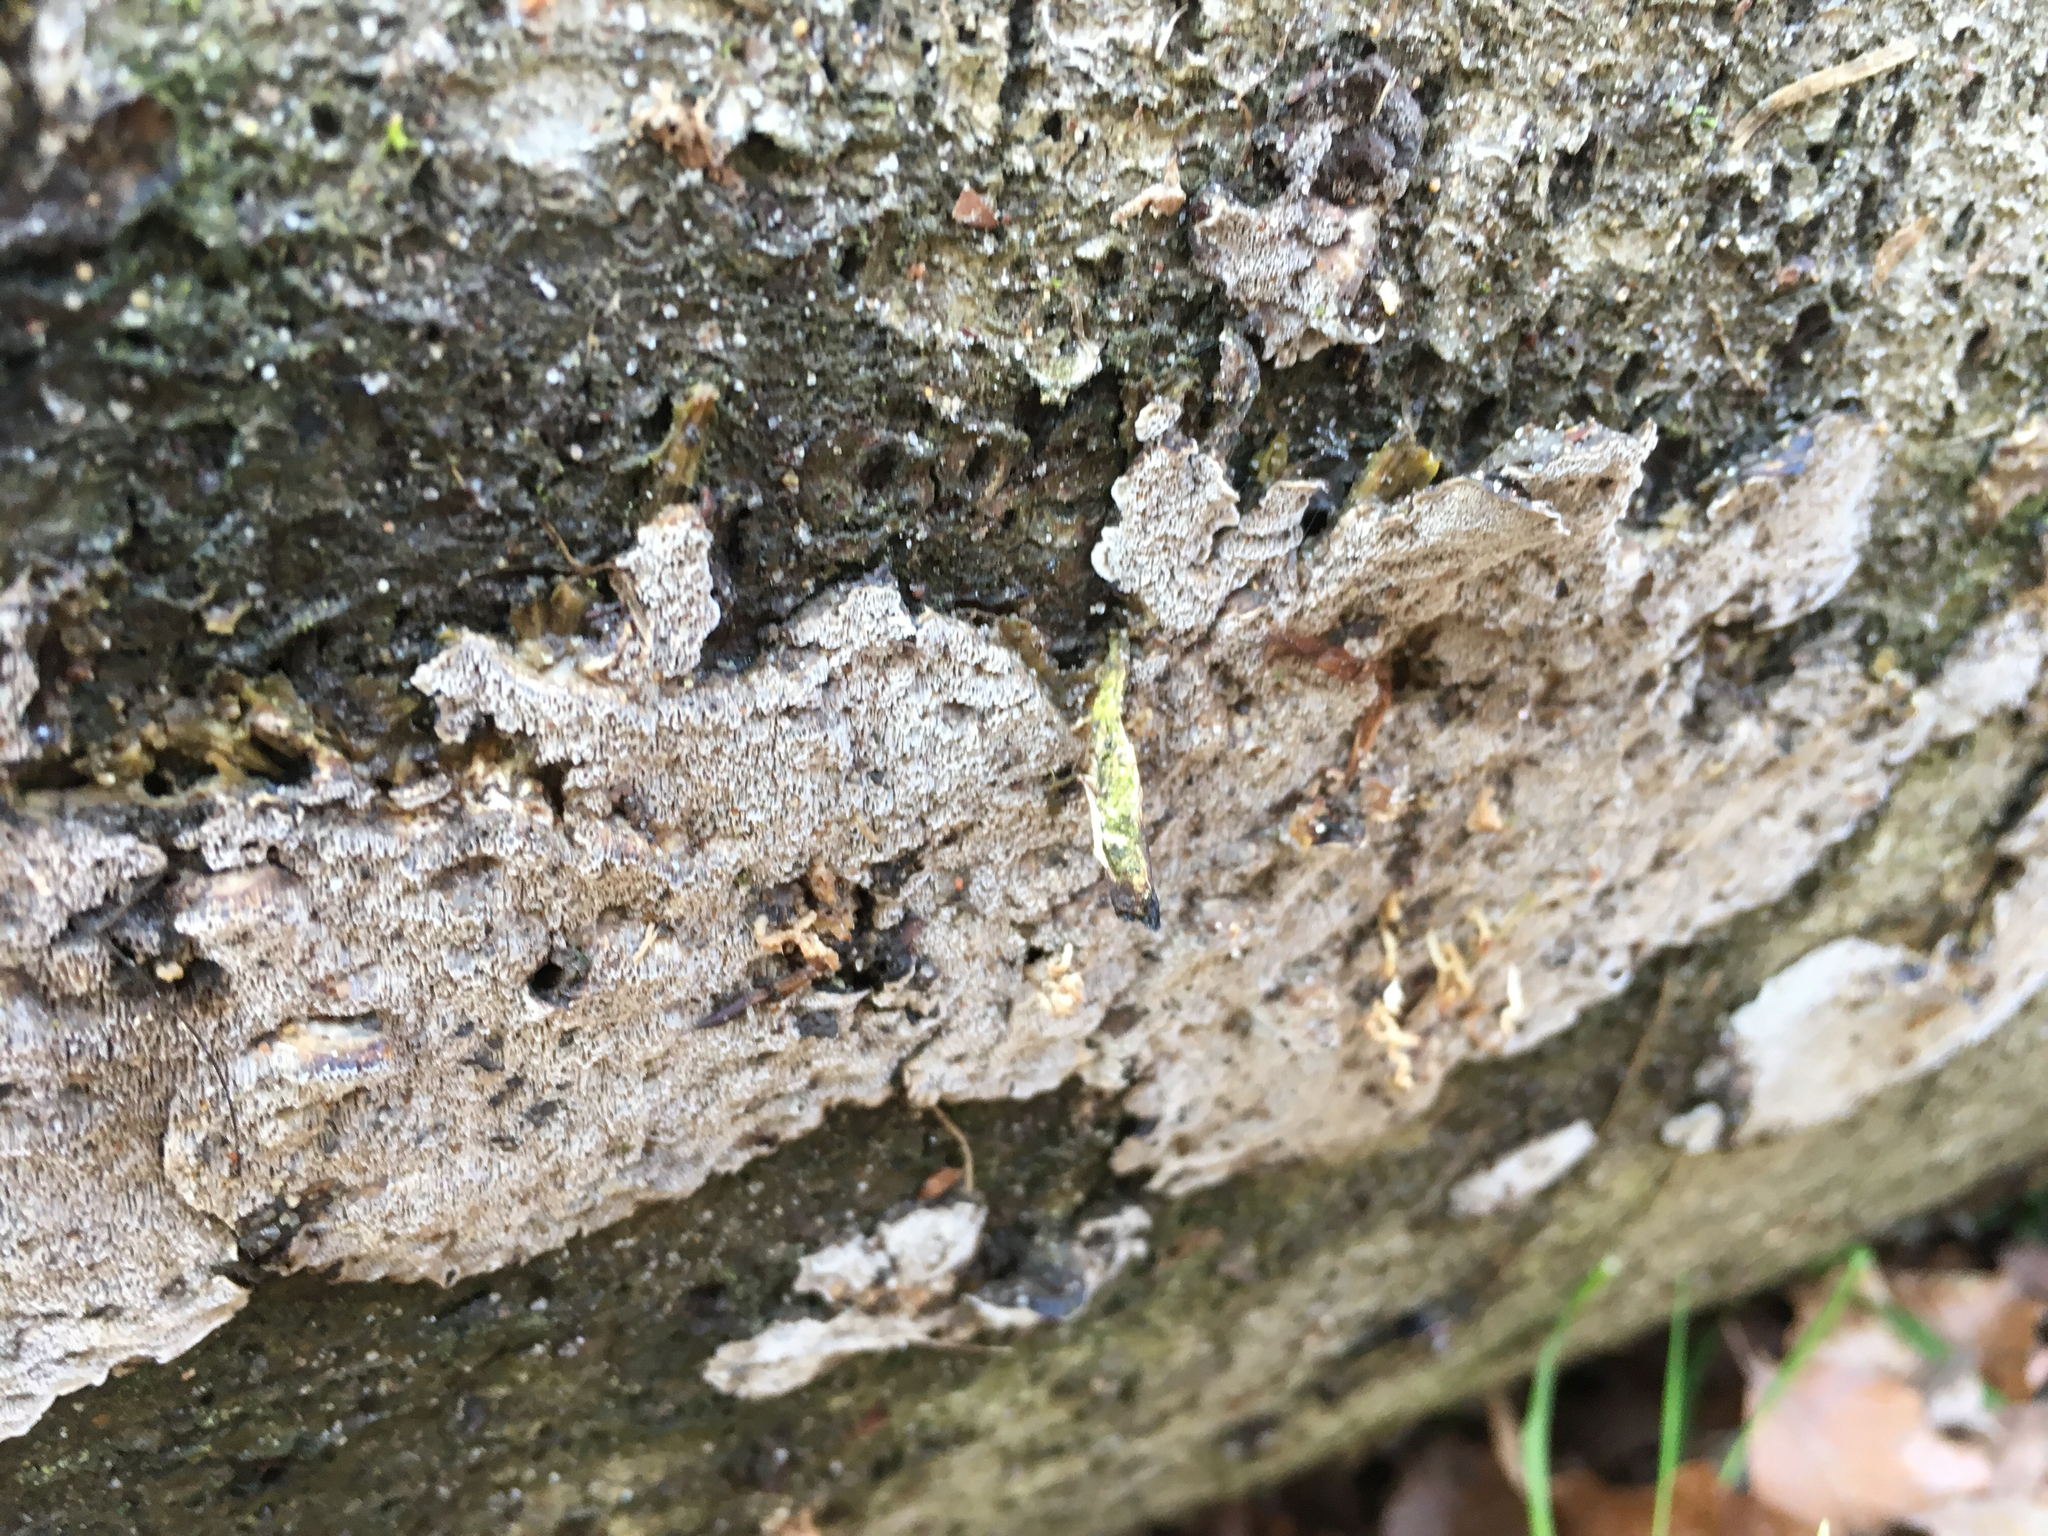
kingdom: Fungi
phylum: Basidiomycota
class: Agaricomycetes
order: Polyporales
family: Polyporaceae
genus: Podofomes
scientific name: Podofomes mollis
